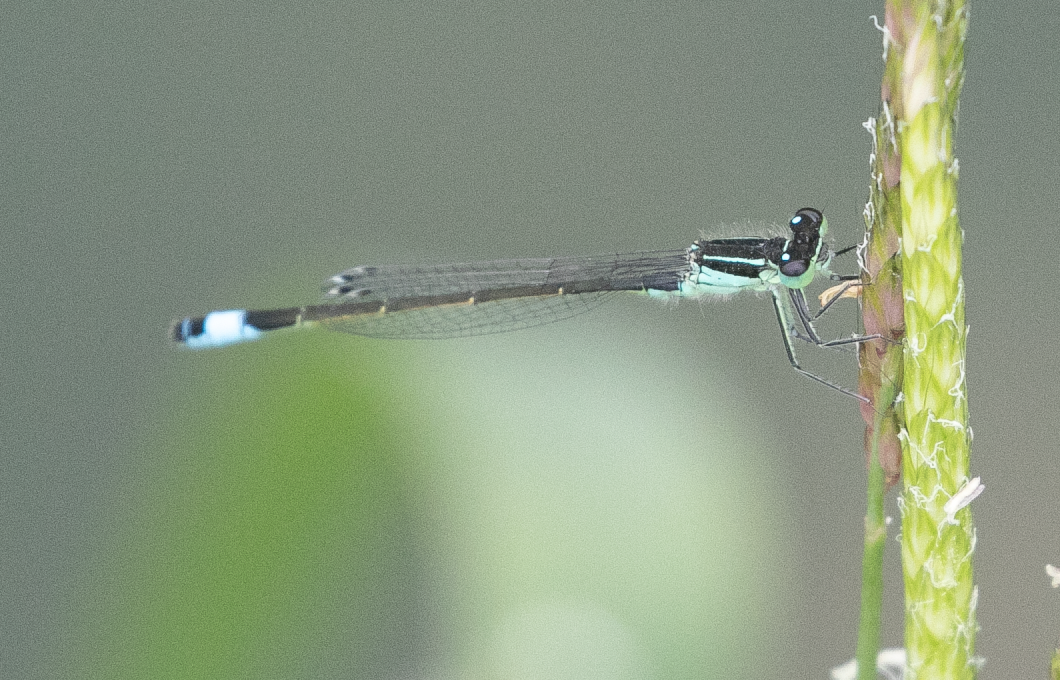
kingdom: Animalia
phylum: Arthropoda
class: Insecta
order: Odonata
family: Coenagrionidae
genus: Ischnura
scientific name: Ischnura elegans
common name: Blue-tailed damselfly
